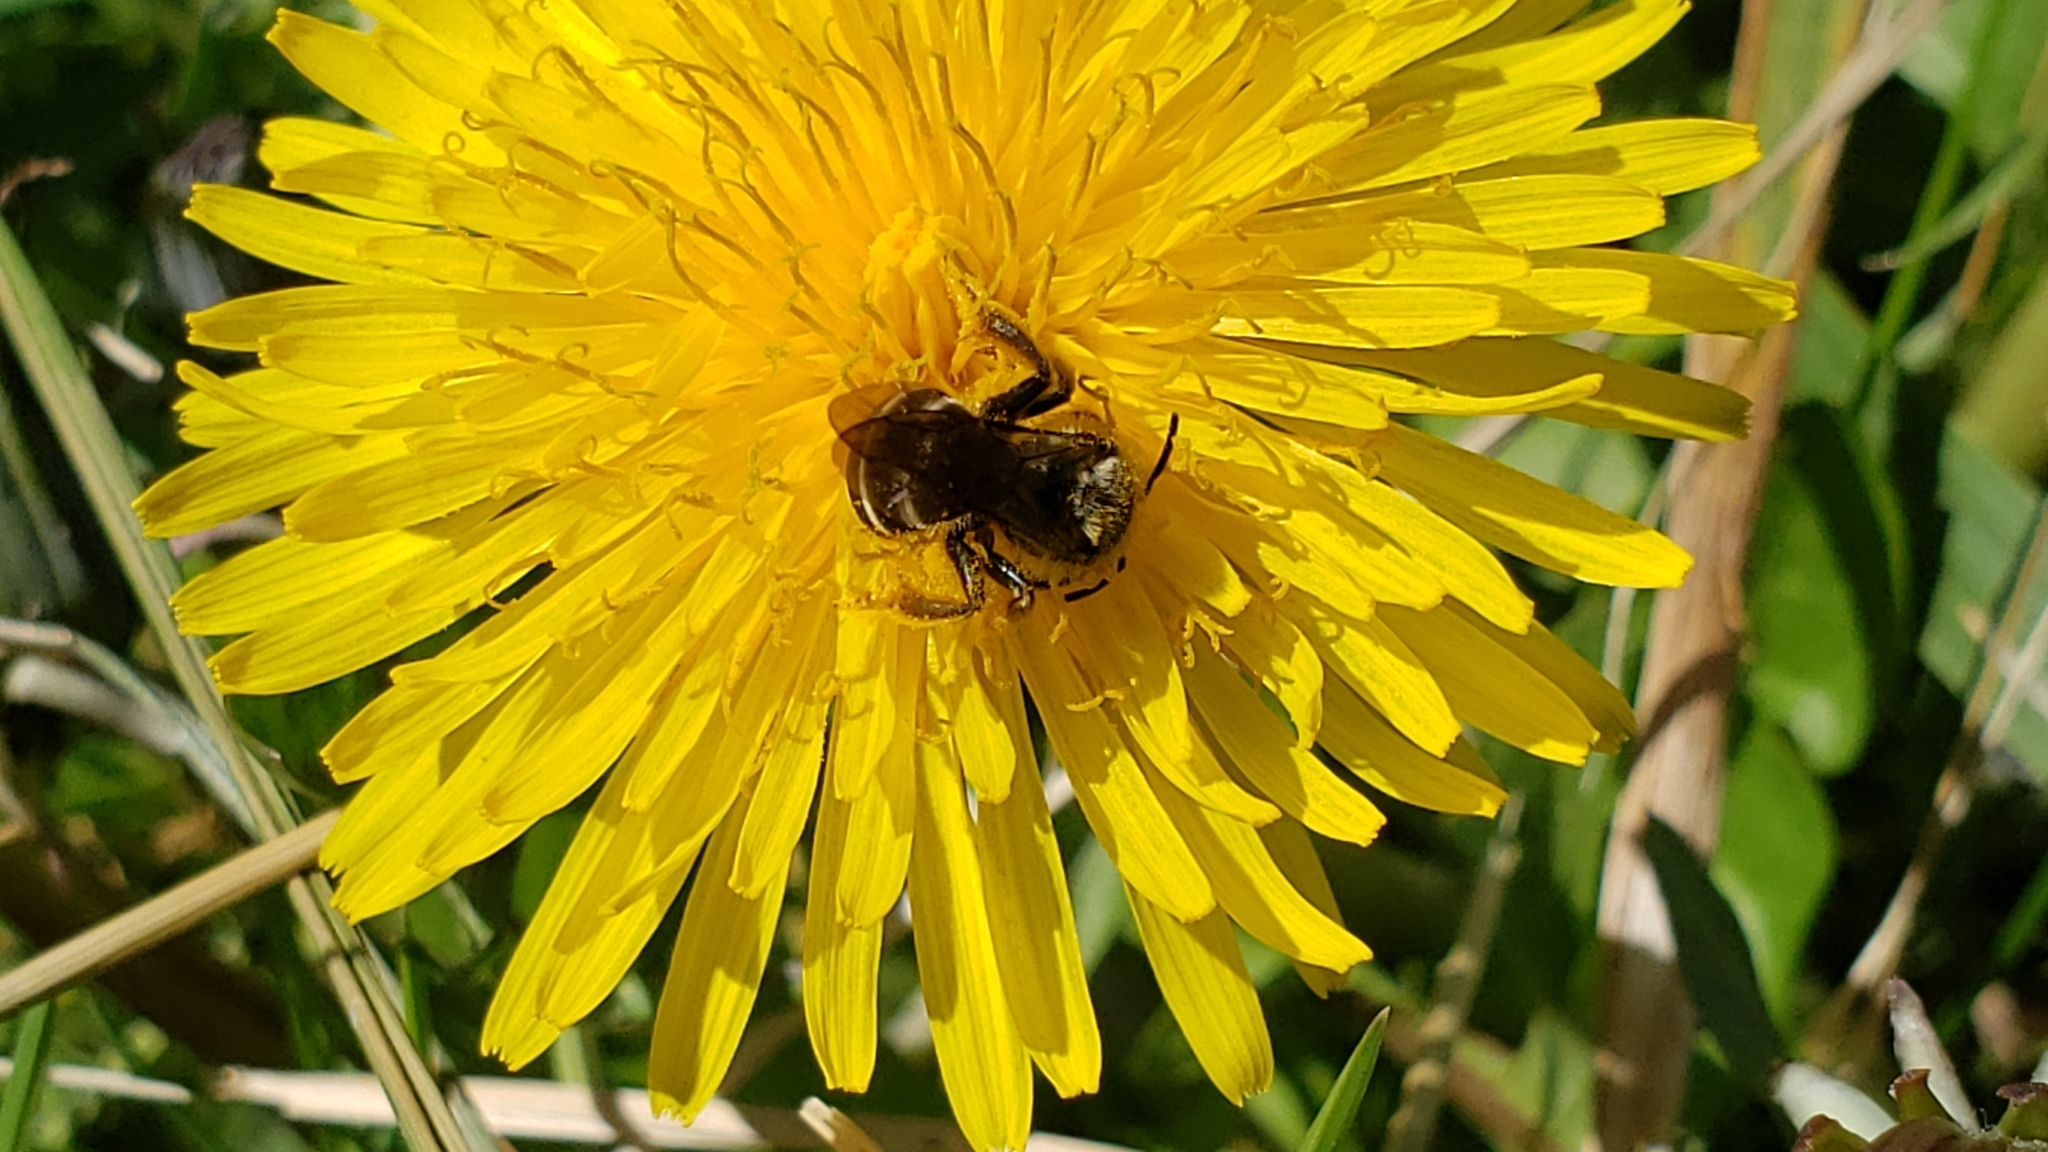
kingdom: Animalia
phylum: Arthropoda
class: Insecta
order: Hymenoptera
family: Halictidae
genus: Halictus
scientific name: Halictus rubicundus
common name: Orange-legged furrow bee
